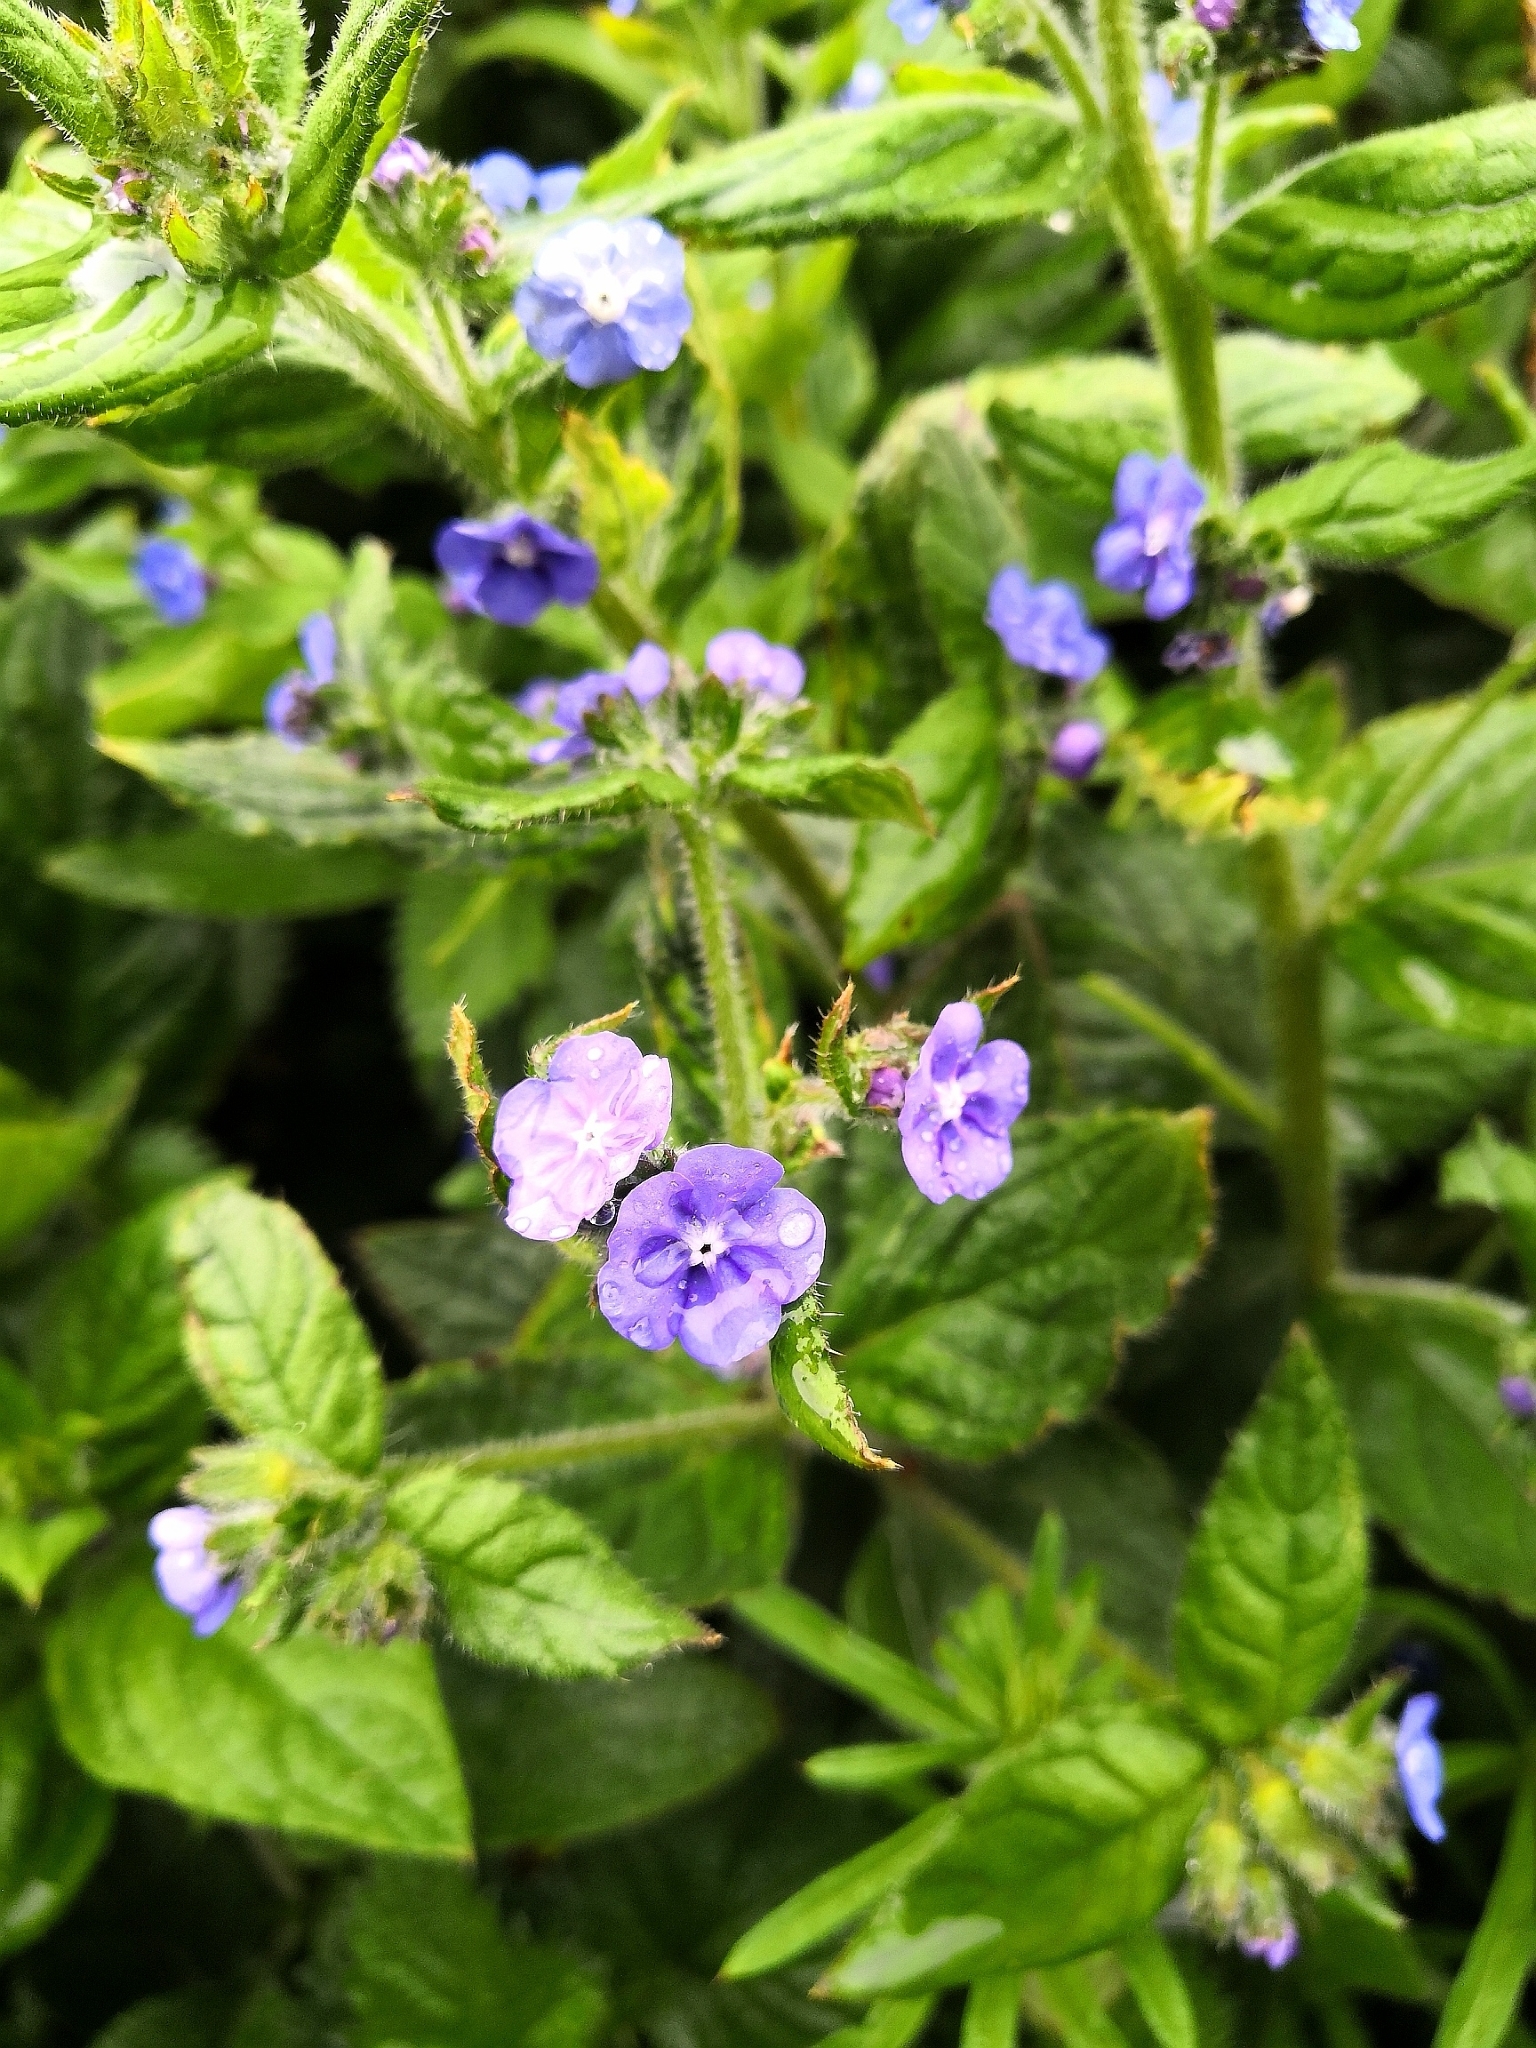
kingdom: Plantae
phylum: Tracheophyta
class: Magnoliopsida
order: Boraginales
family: Boraginaceae
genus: Pentaglottis
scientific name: Pentaglottis sempervirens
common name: Green alkanet
